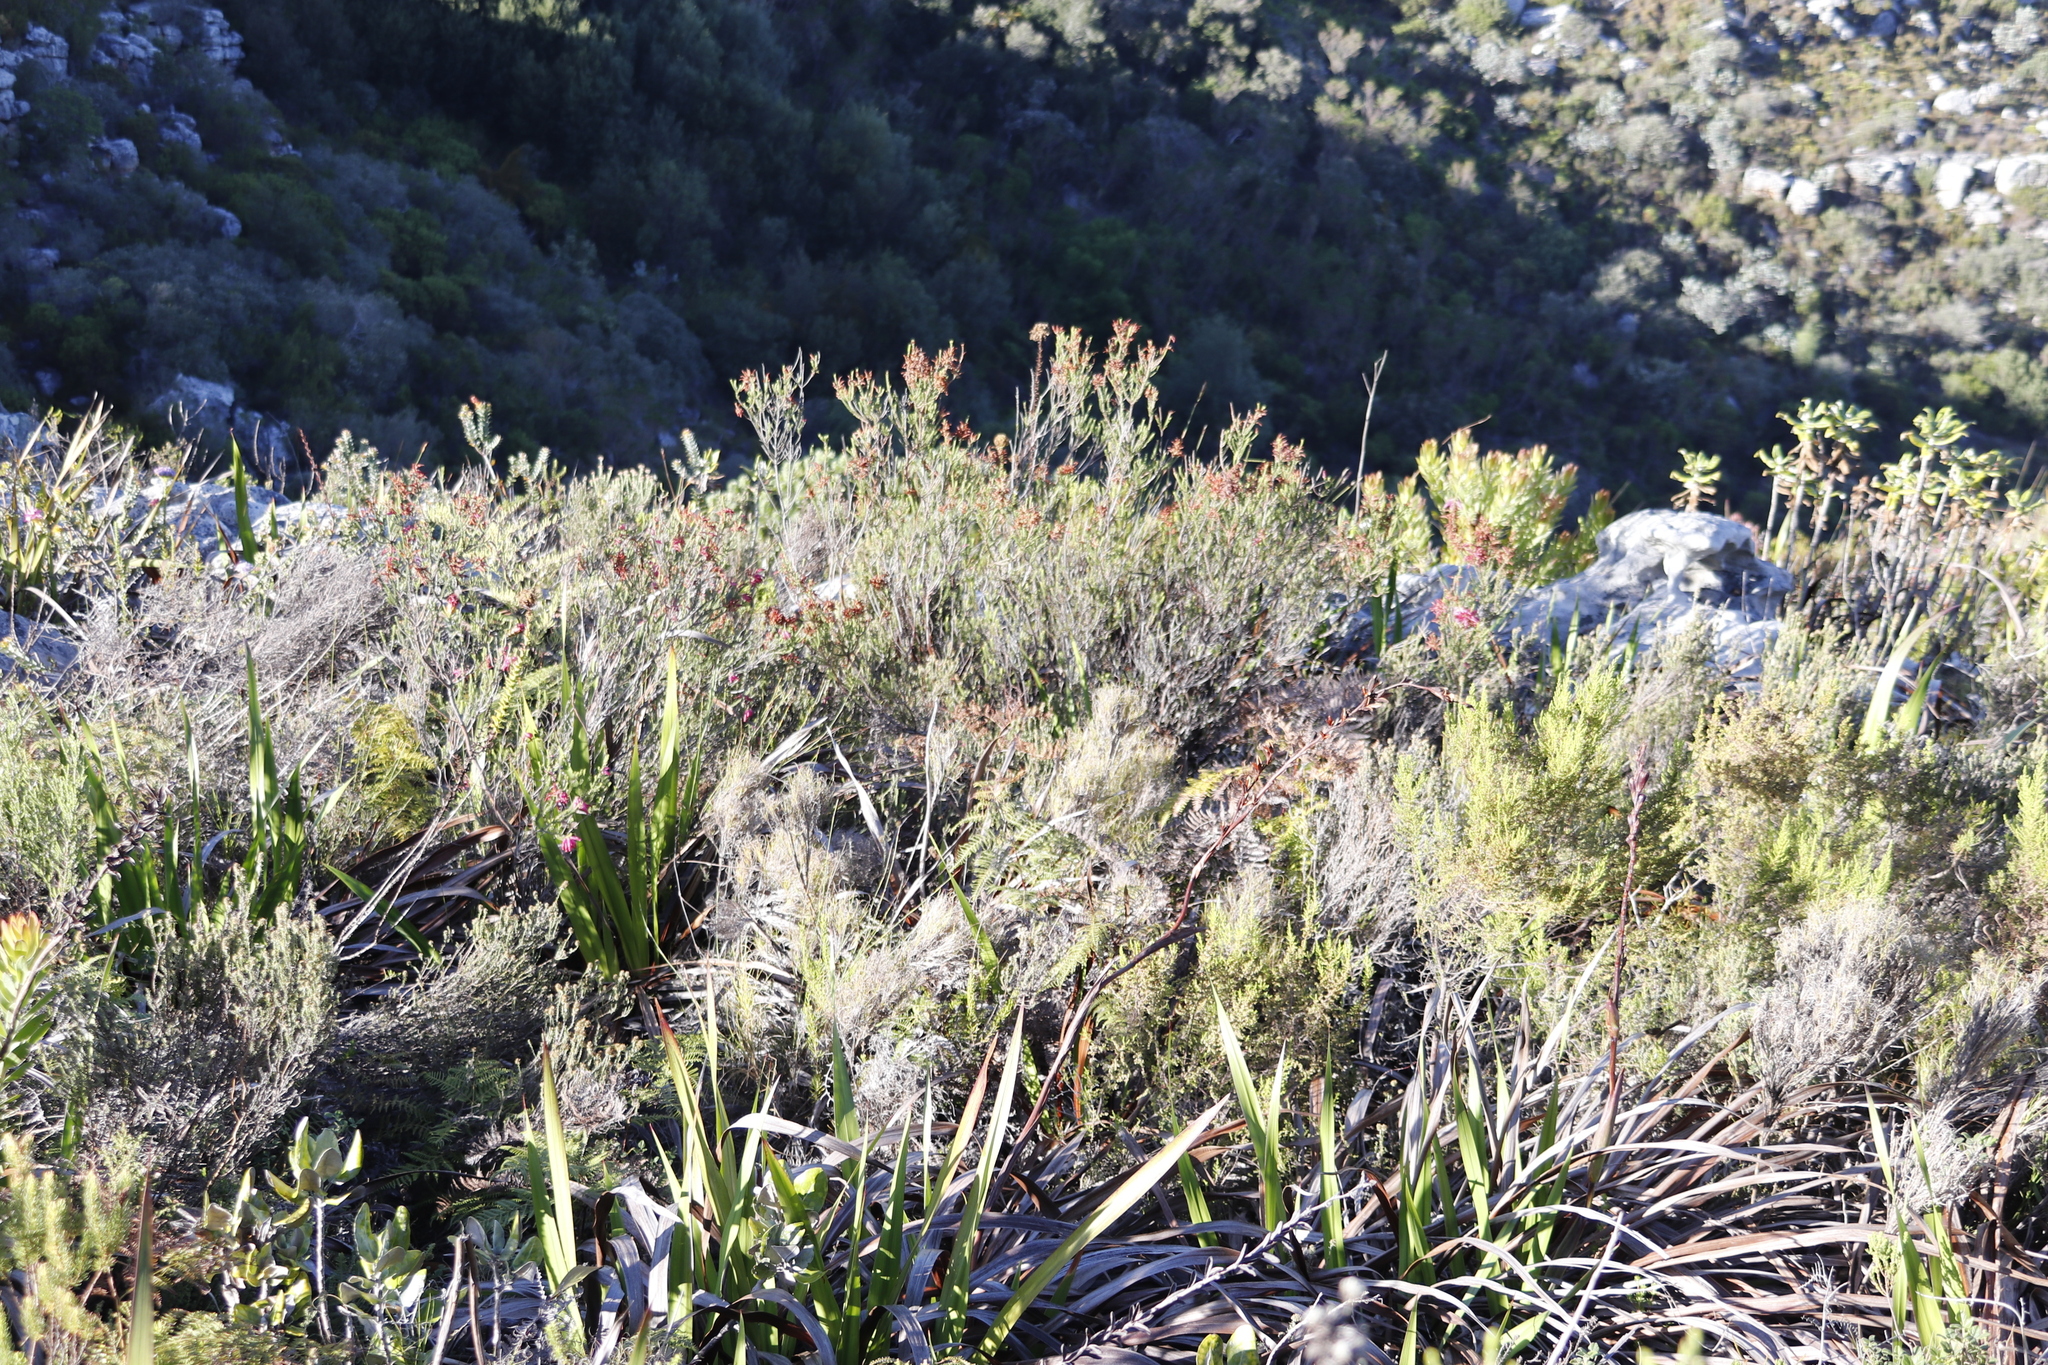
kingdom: Plantae
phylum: Tracheophyta
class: Magnoliopsida
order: Ericales
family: Ericaceae
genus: Erica
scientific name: Erica mammosa
